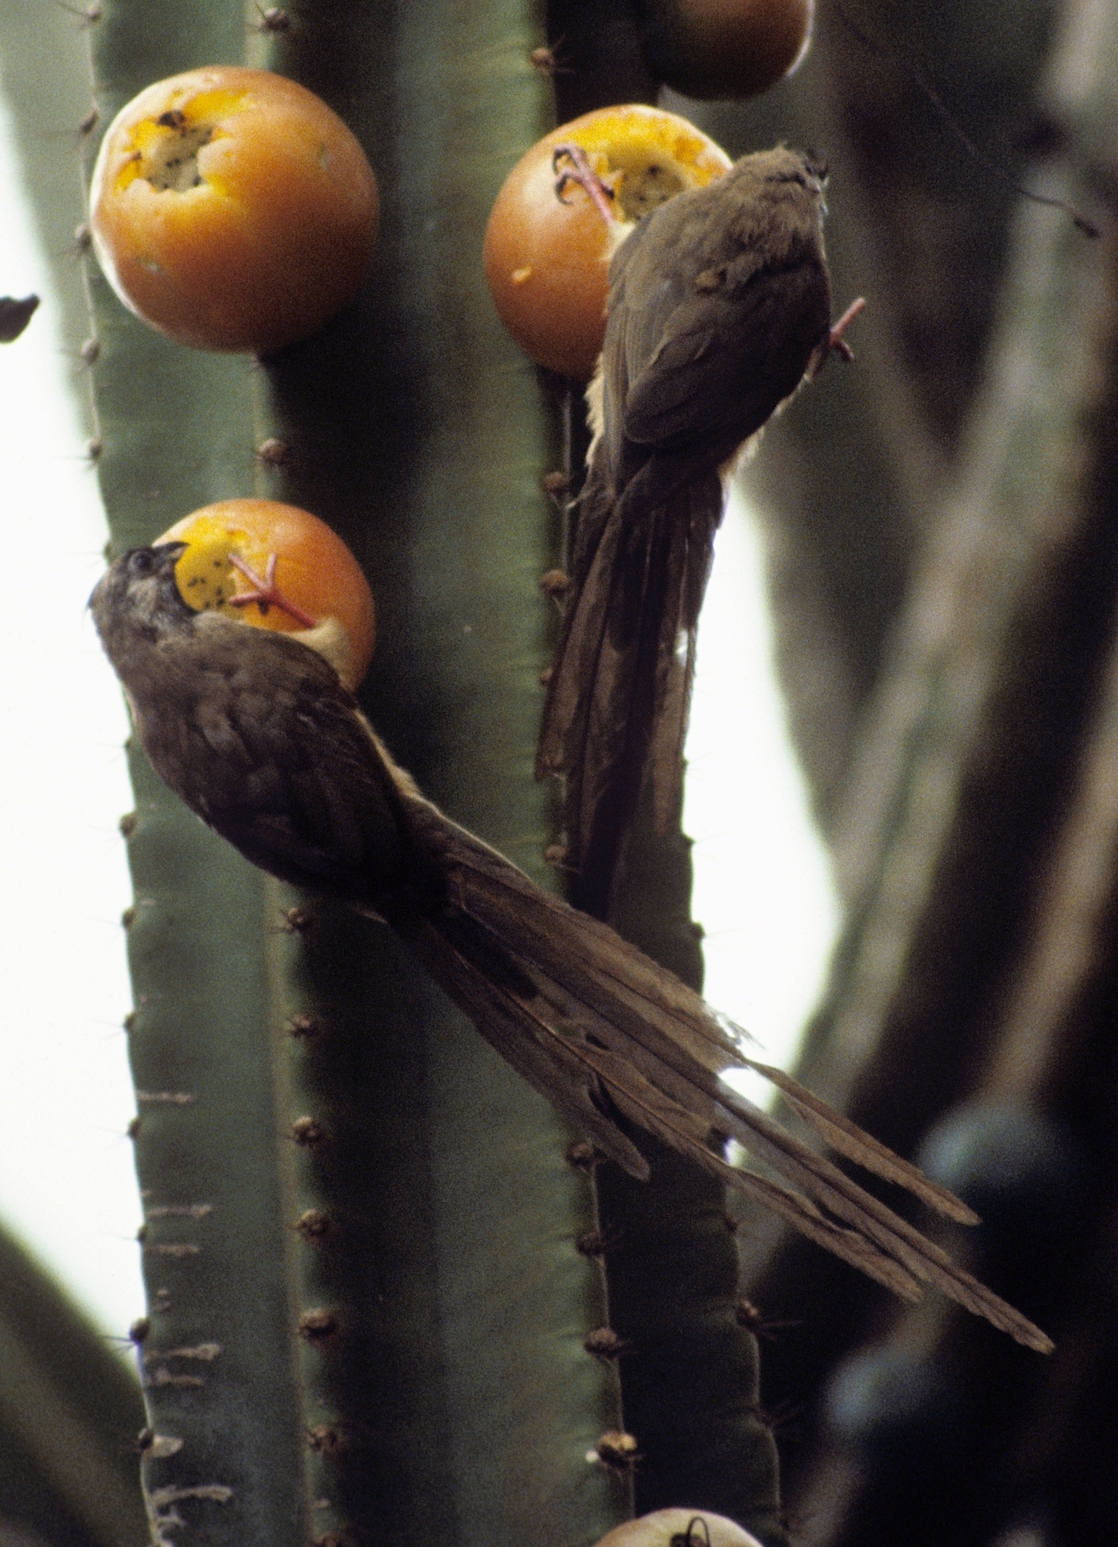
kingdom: Animalia
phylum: Chordata
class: Aves
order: Coliiformes
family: Coliidae
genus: Colius
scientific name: Colius striatus
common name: Speckled mousebird
